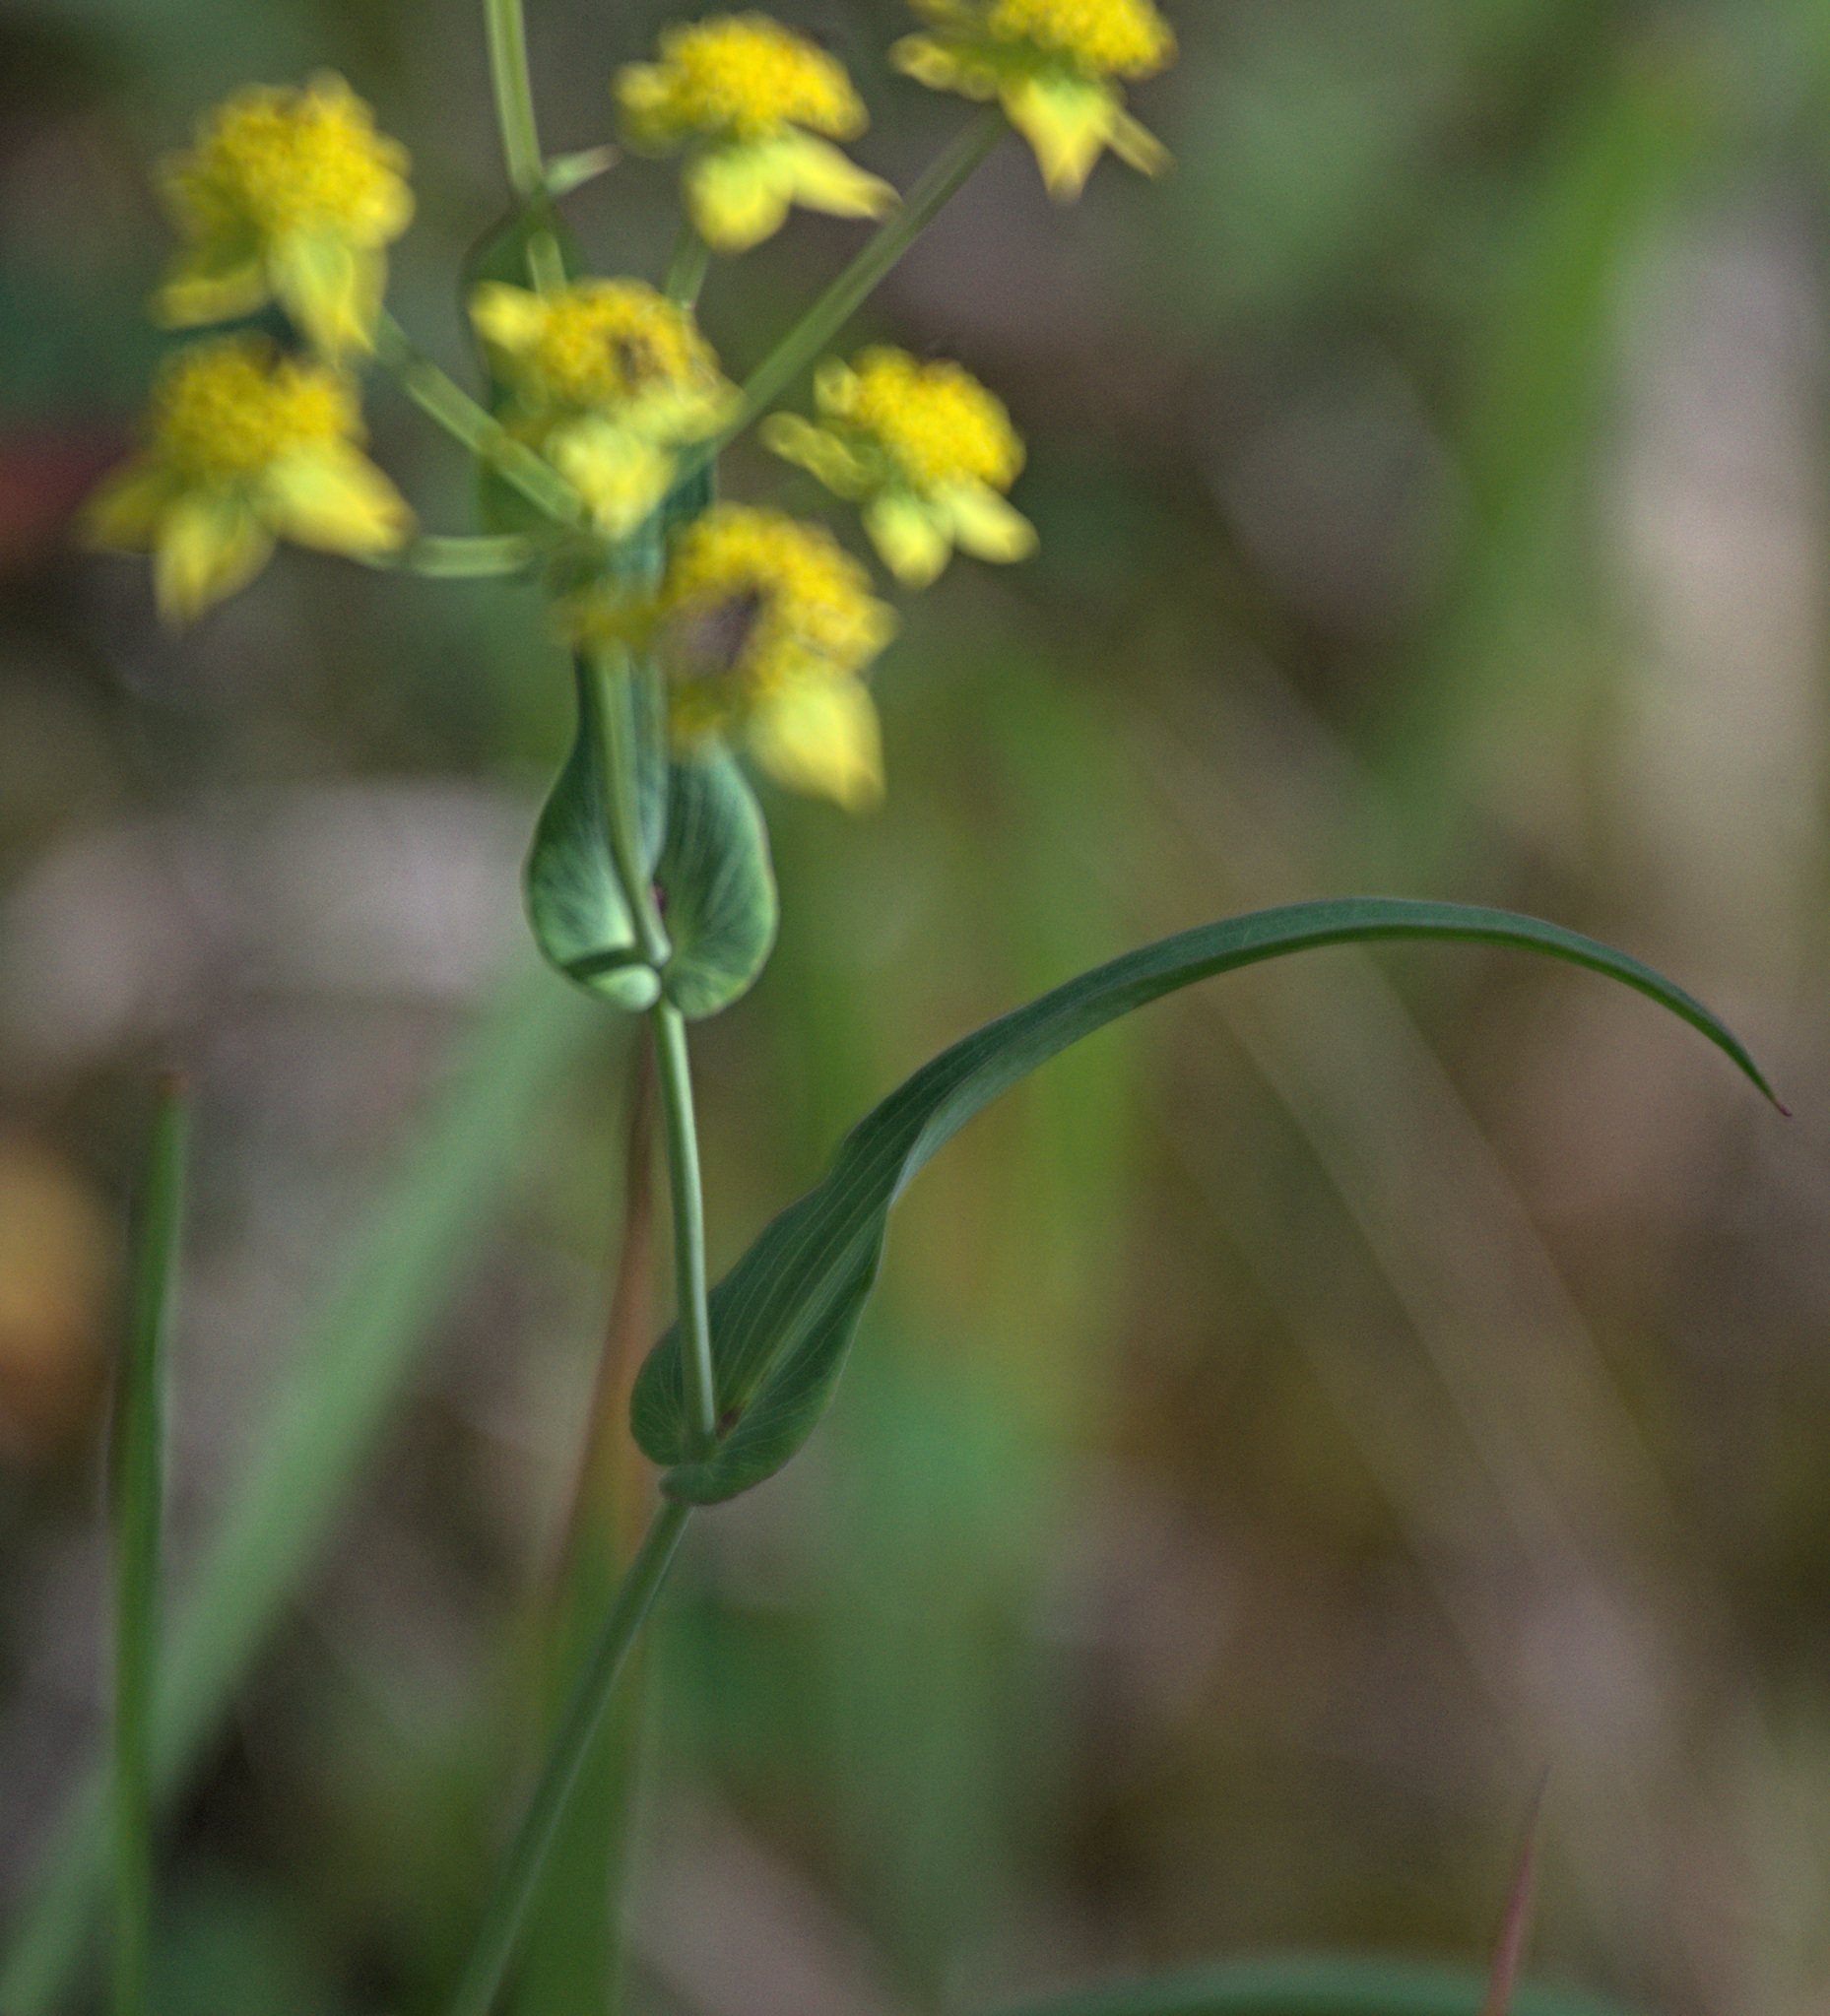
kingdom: Plantae
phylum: Tracheophyta
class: Magnoliopsida
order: Apiales
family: Apiaceae
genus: Bupleurum
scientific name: Bupleurum multinerve
